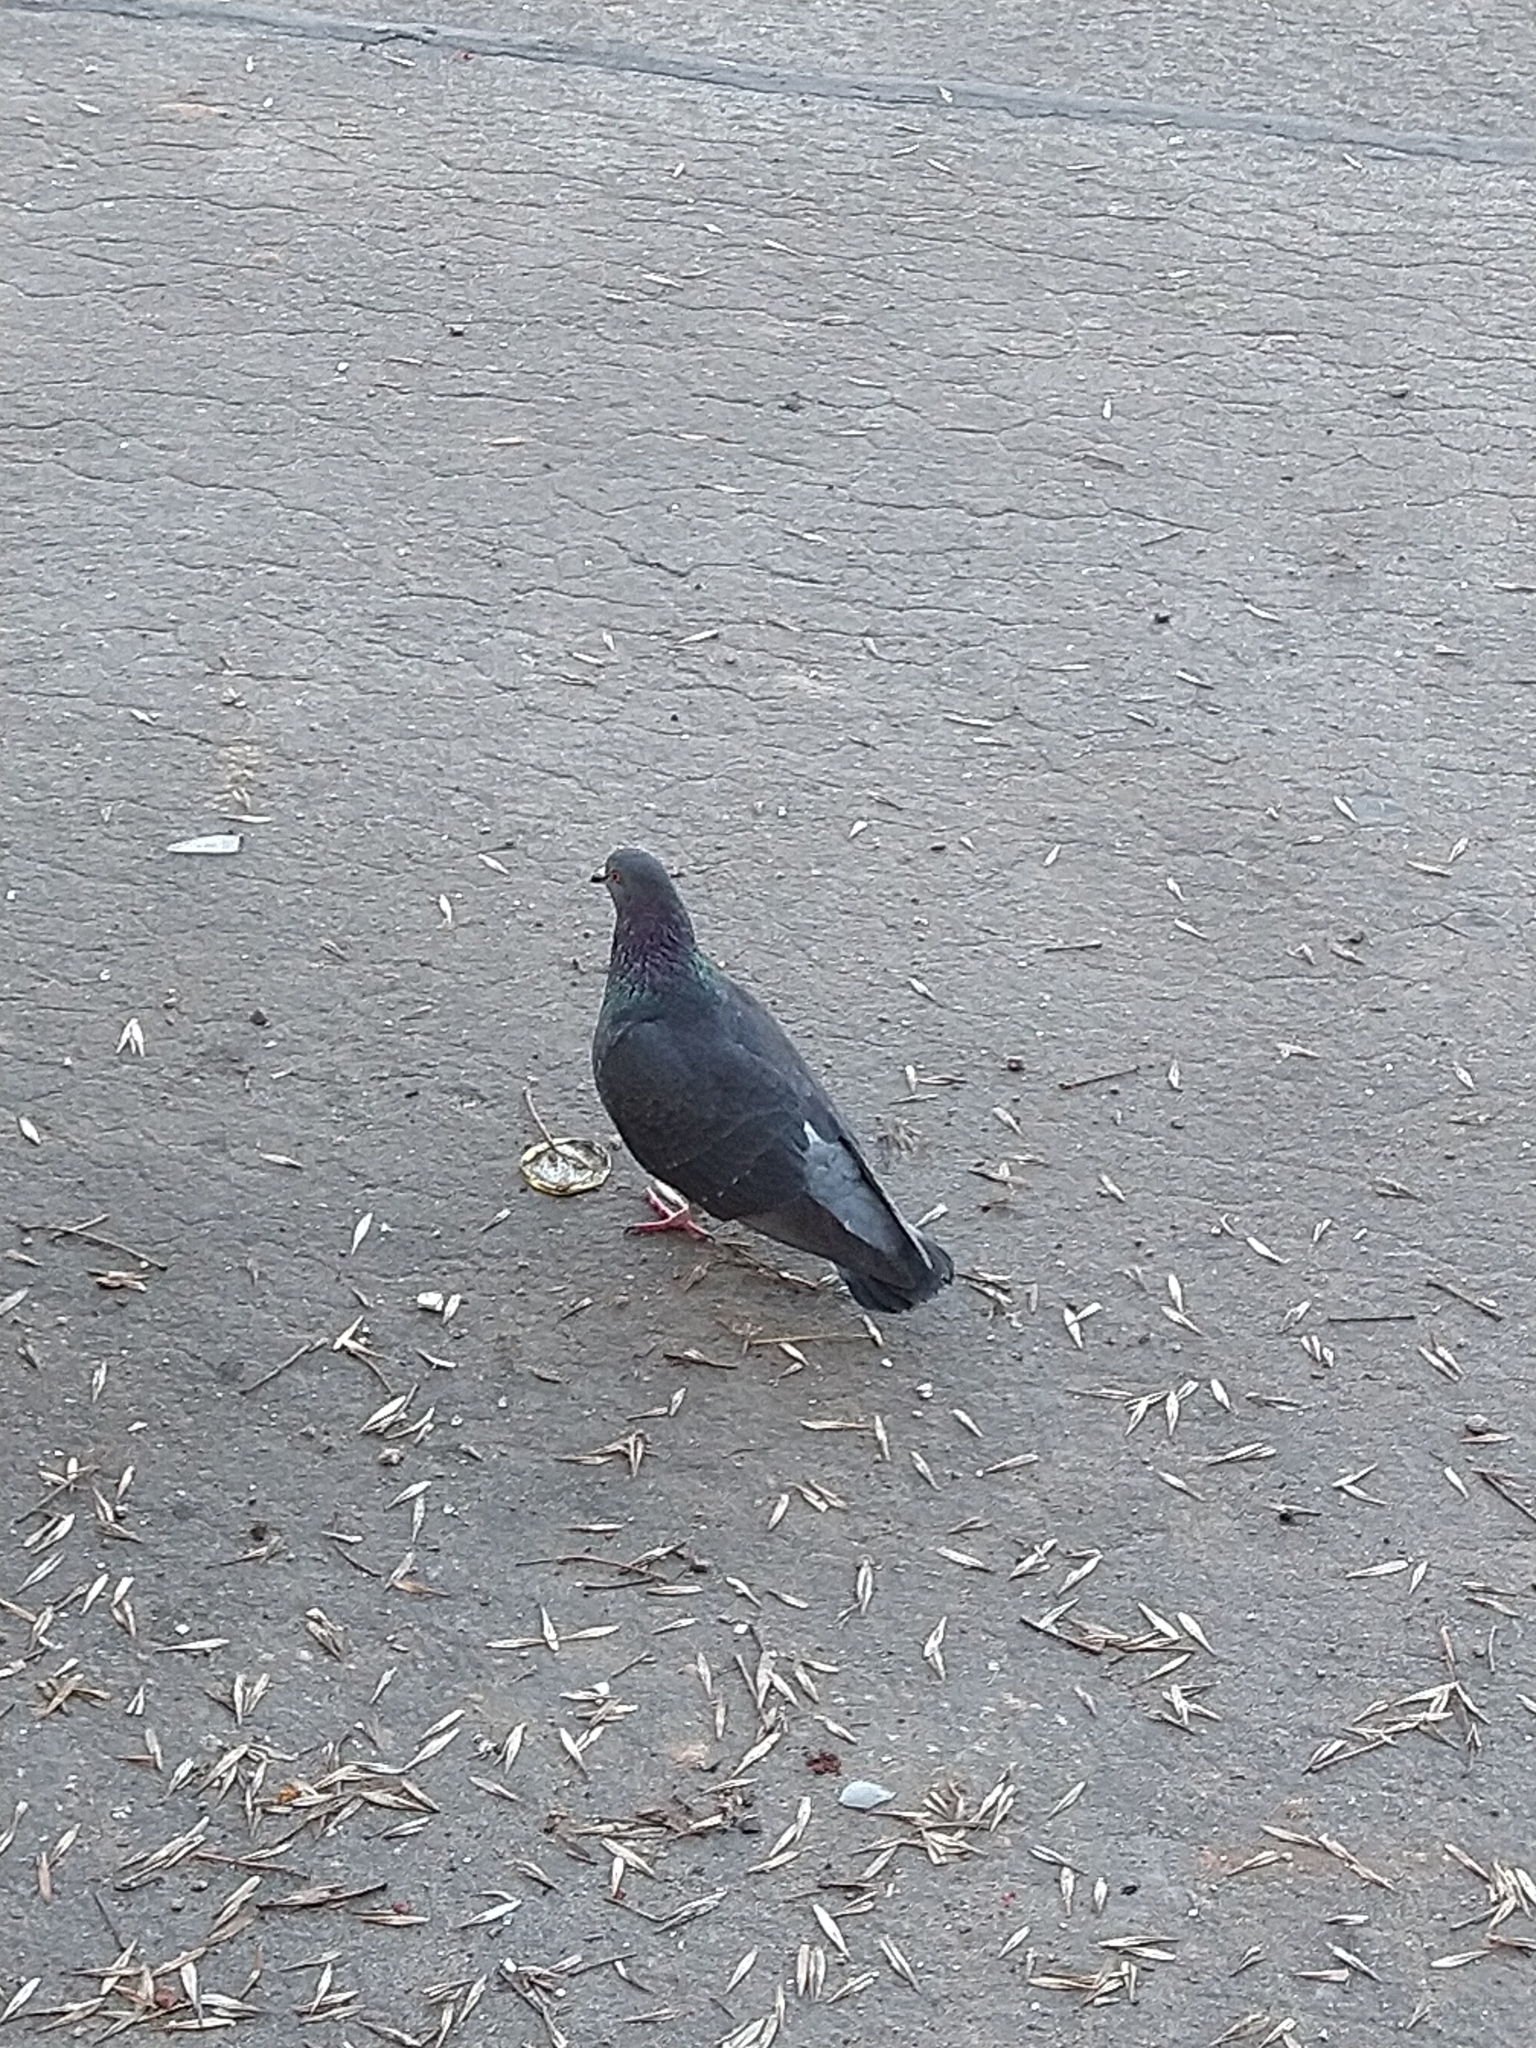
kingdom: Animalia
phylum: Chordata
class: Aves
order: Columbiformes
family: Columbidae
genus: Columba
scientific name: Columba livia
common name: Rock pigeon
